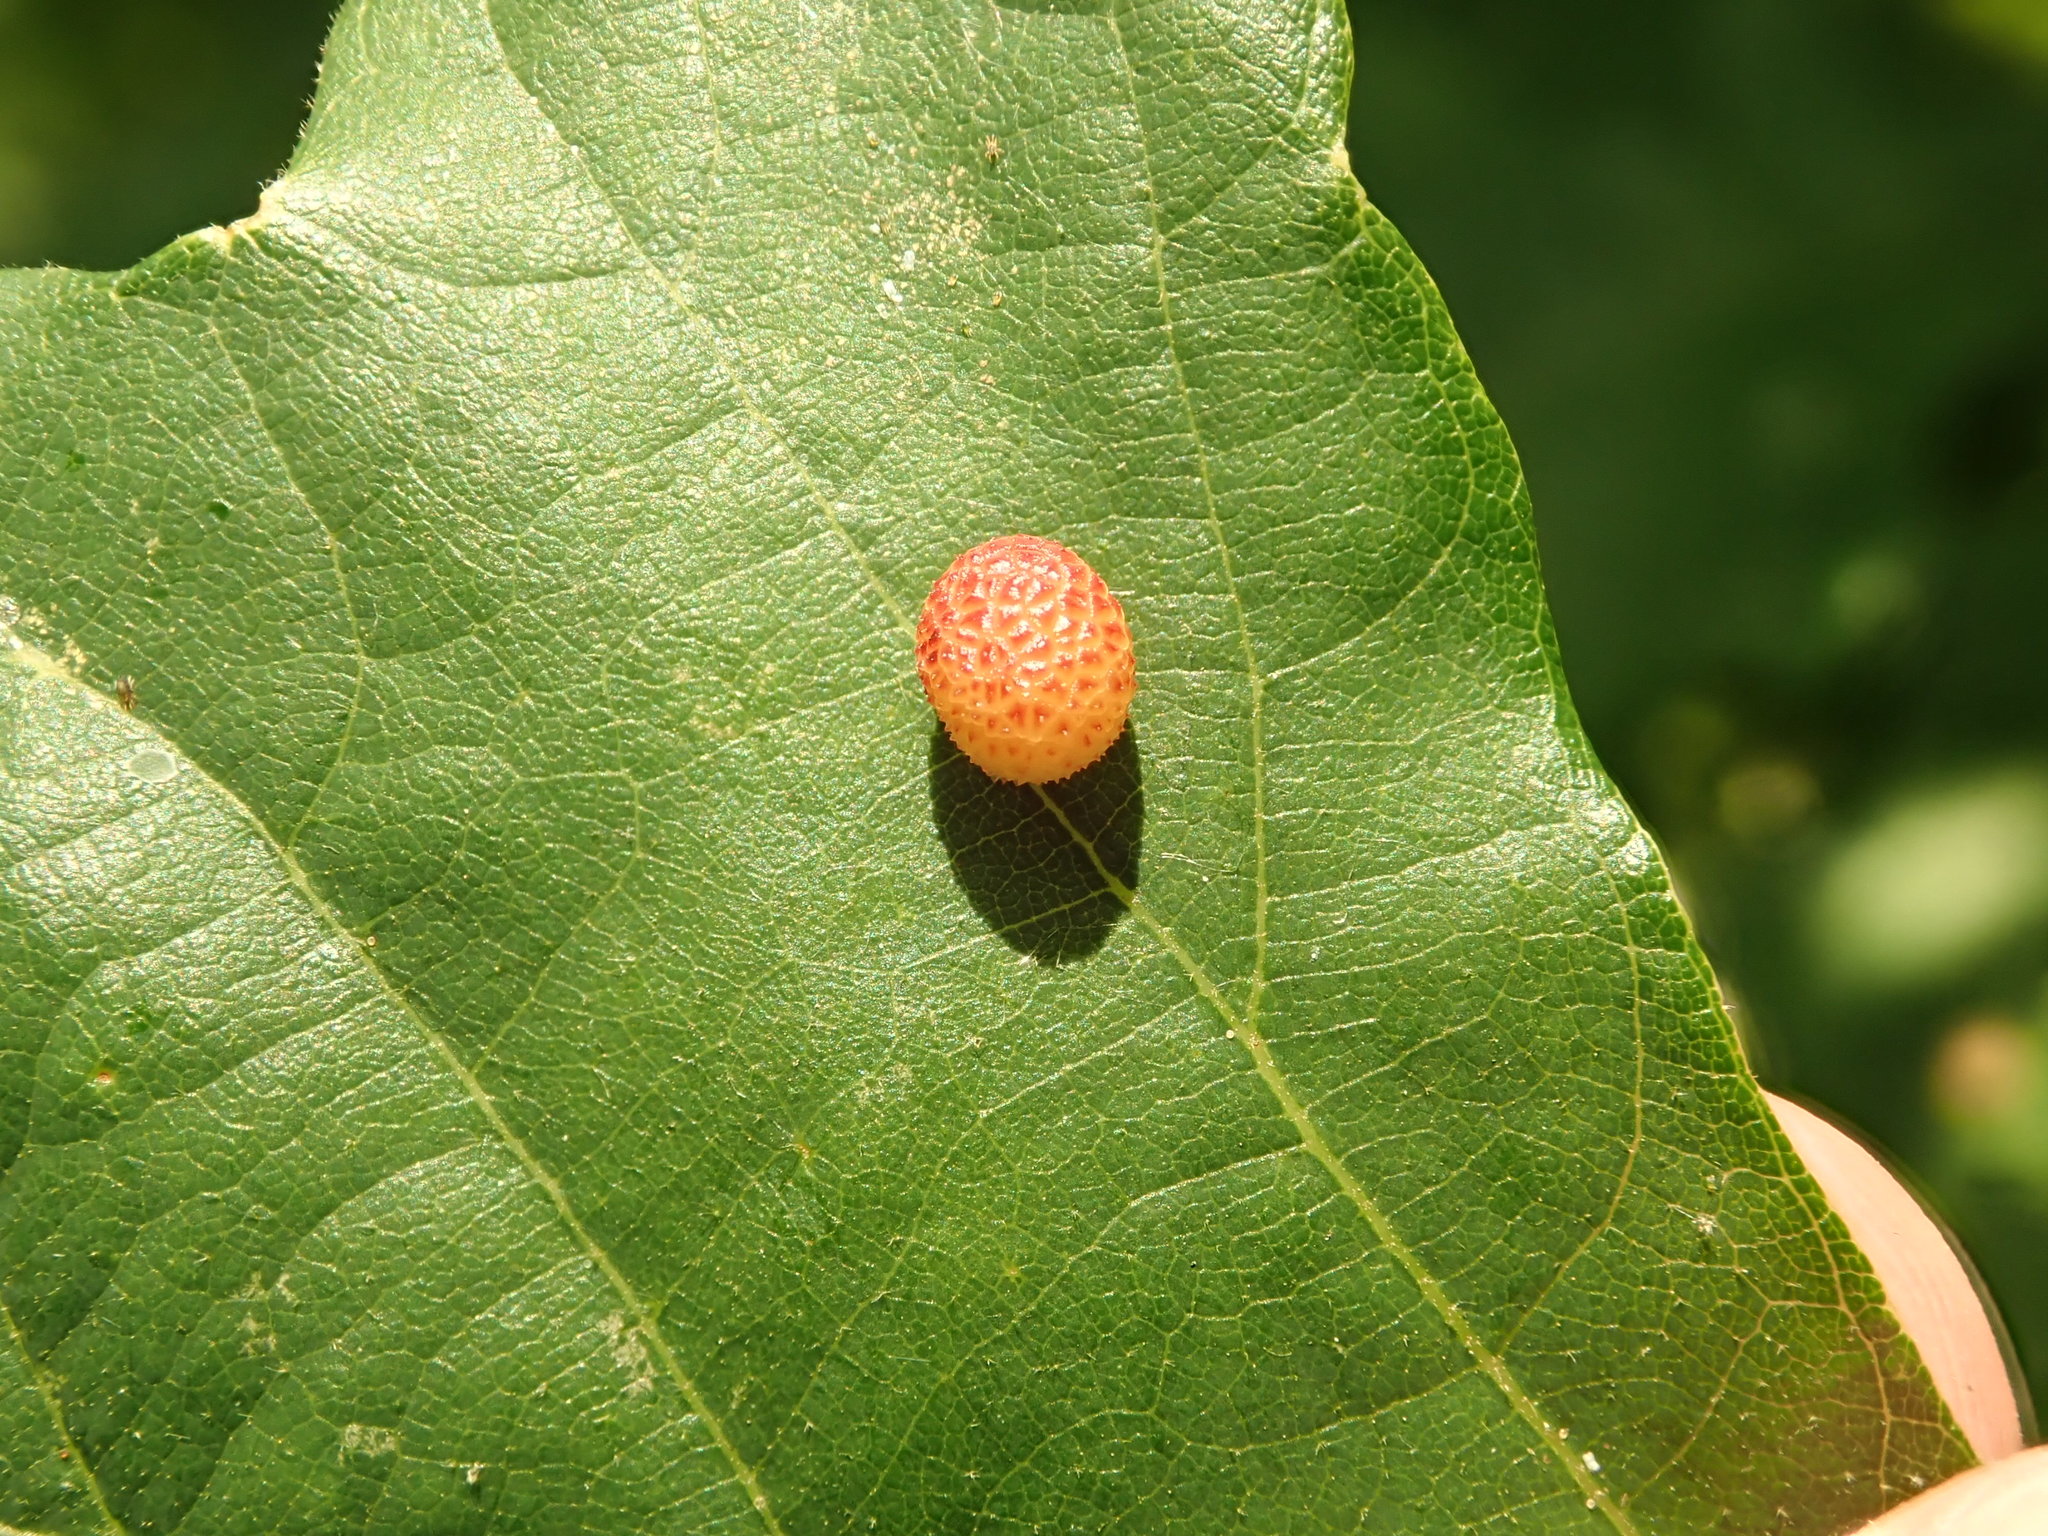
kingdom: Animalia
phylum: Arthropoda
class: Insecta
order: Hymenoptera
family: Cynipidae
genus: Acraspis
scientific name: Acraspis quercushirta
